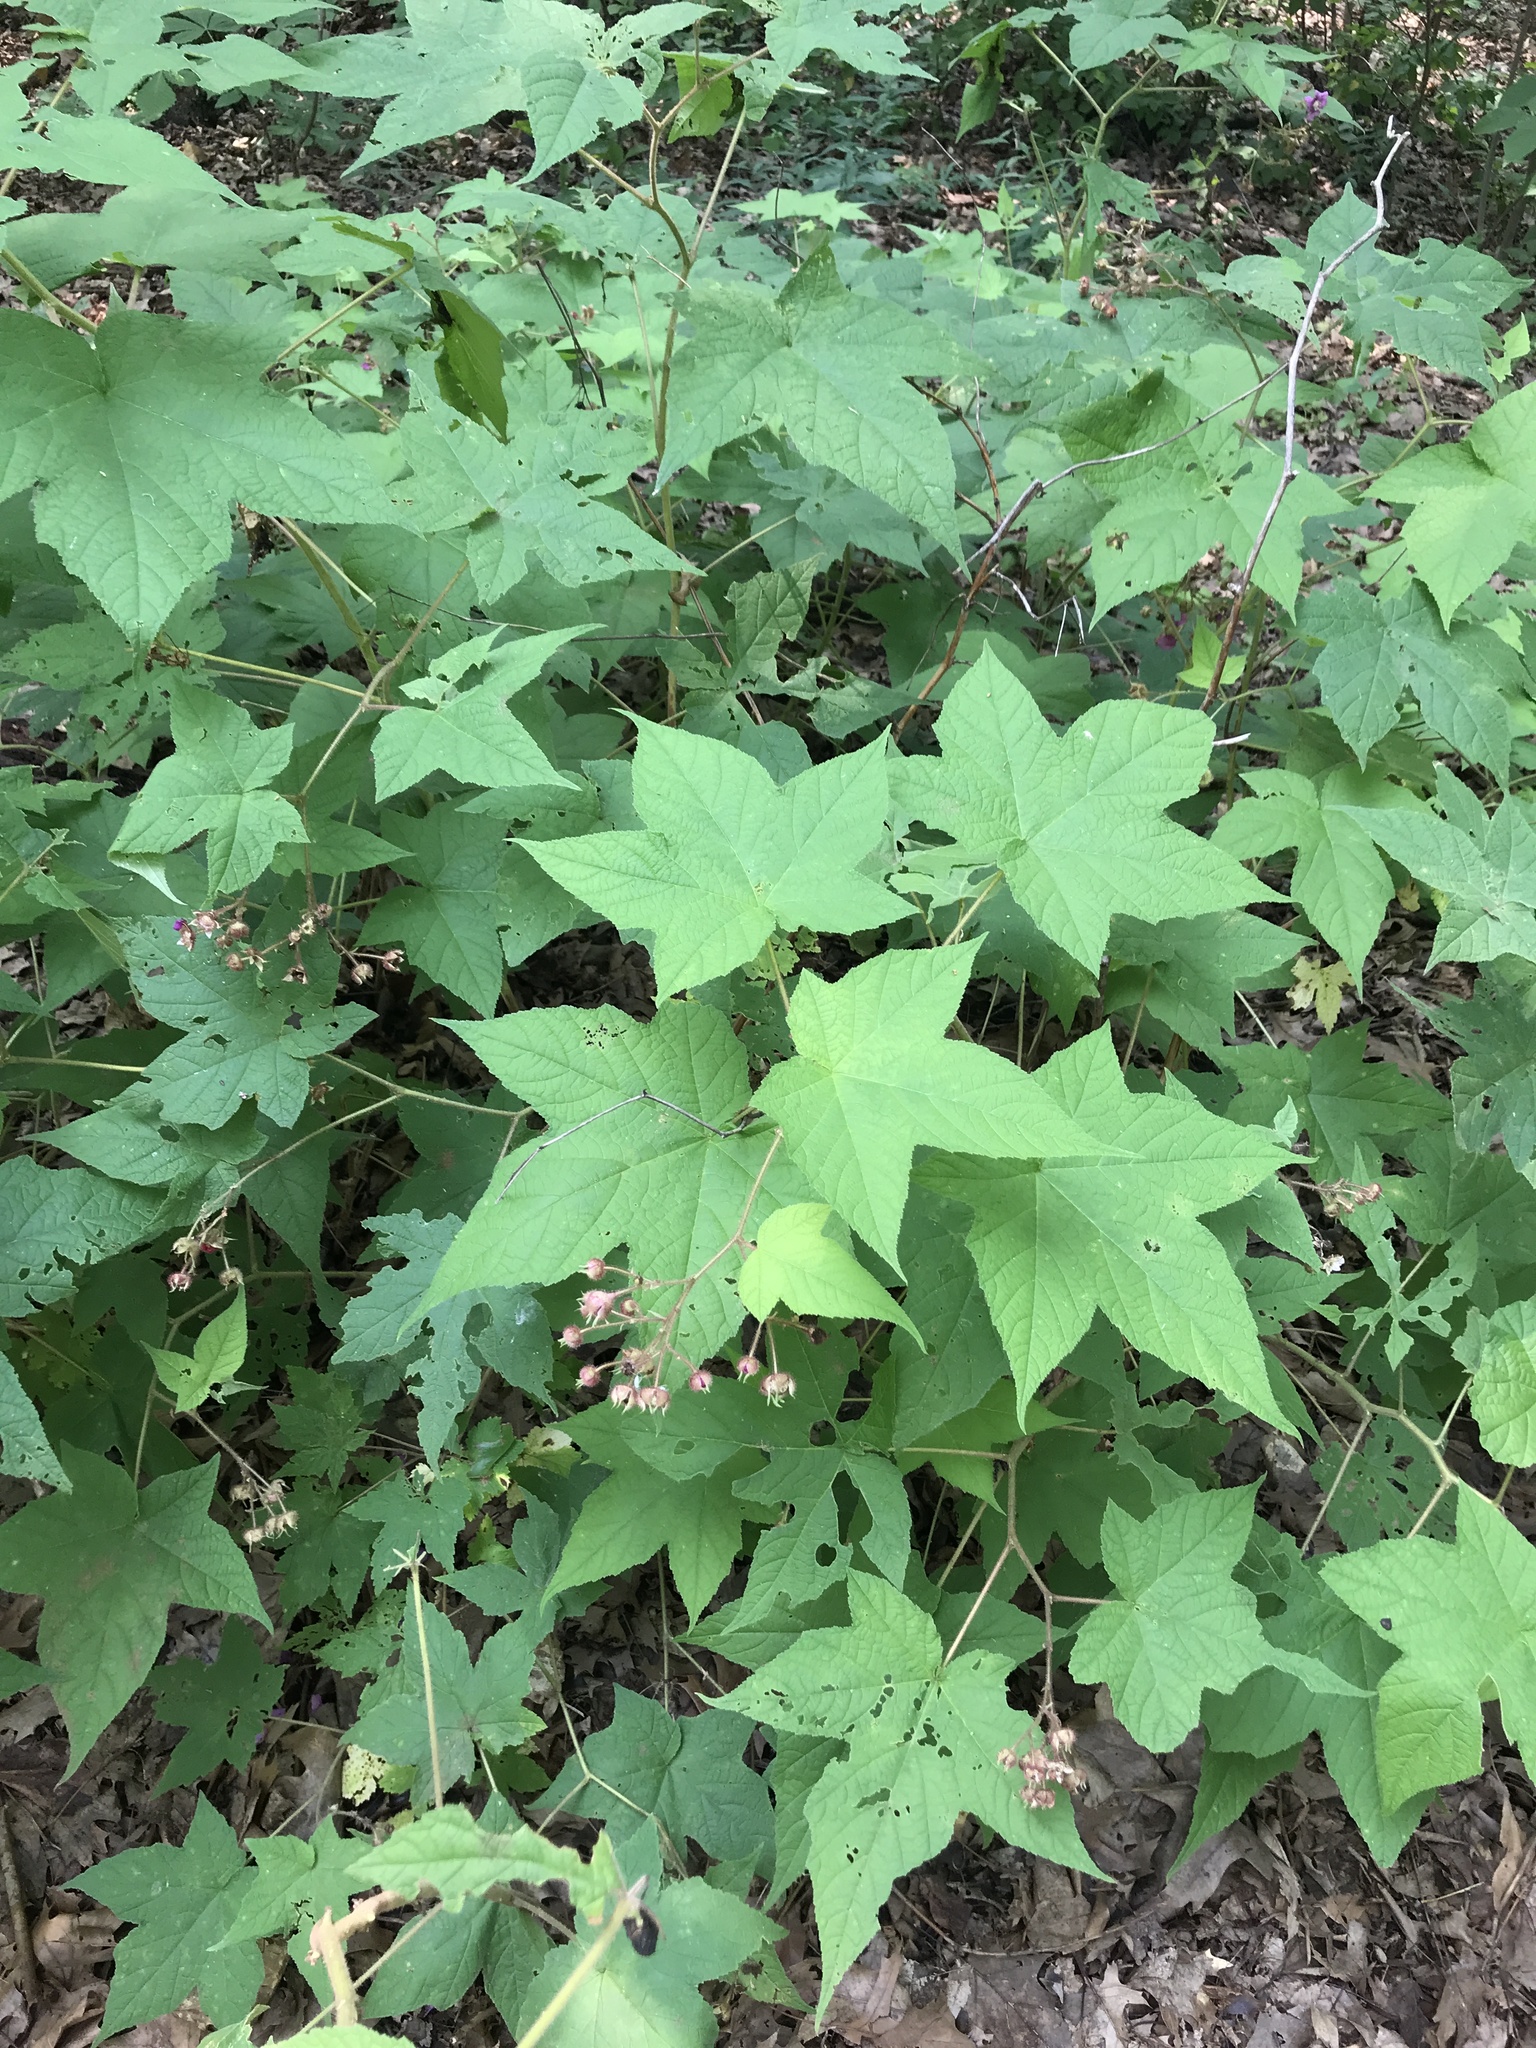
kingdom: Plantae
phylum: Tracheophyta
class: Magnoliopsida
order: Rosales
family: Rosaceae
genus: Rubus
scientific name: Rubus odoratus
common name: Purple-flowered raspberry
